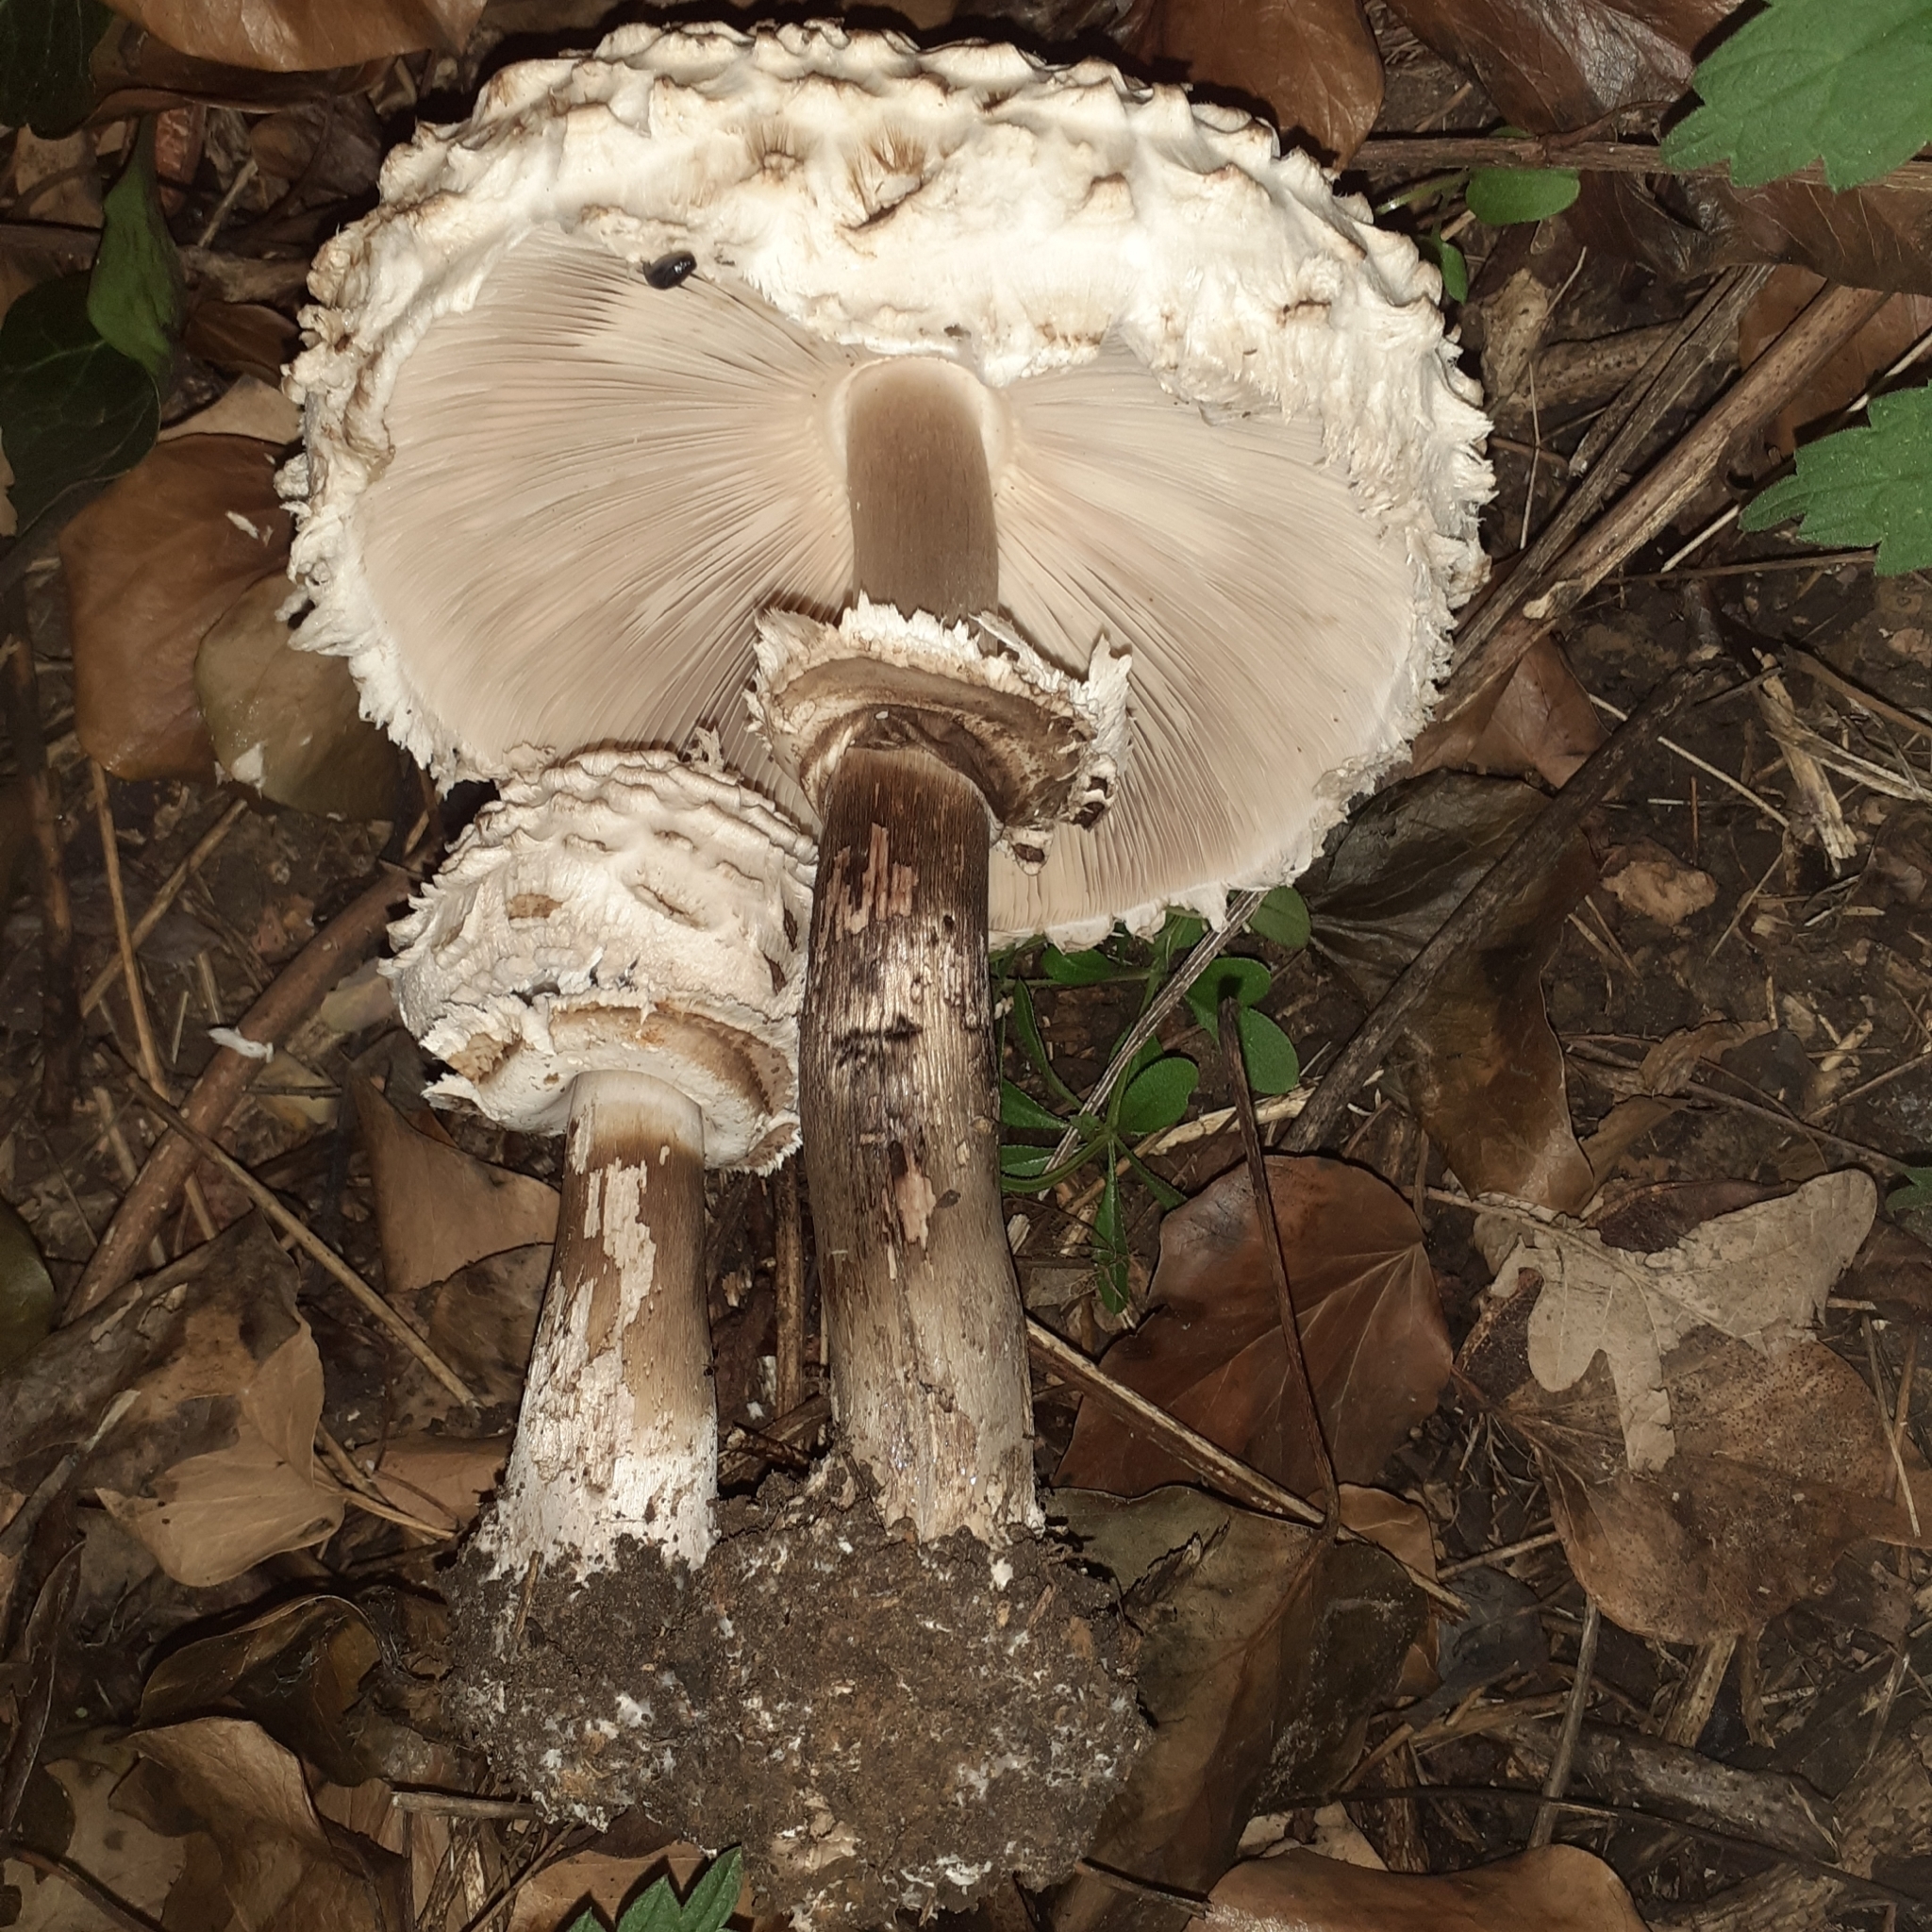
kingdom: Fungi
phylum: Basidiomycota
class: Agaricomycetes
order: Agaricales
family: Agaricaceae
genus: Chlorophyllum
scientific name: Chlorophyllum rhacodes
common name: Shaggy parasol
